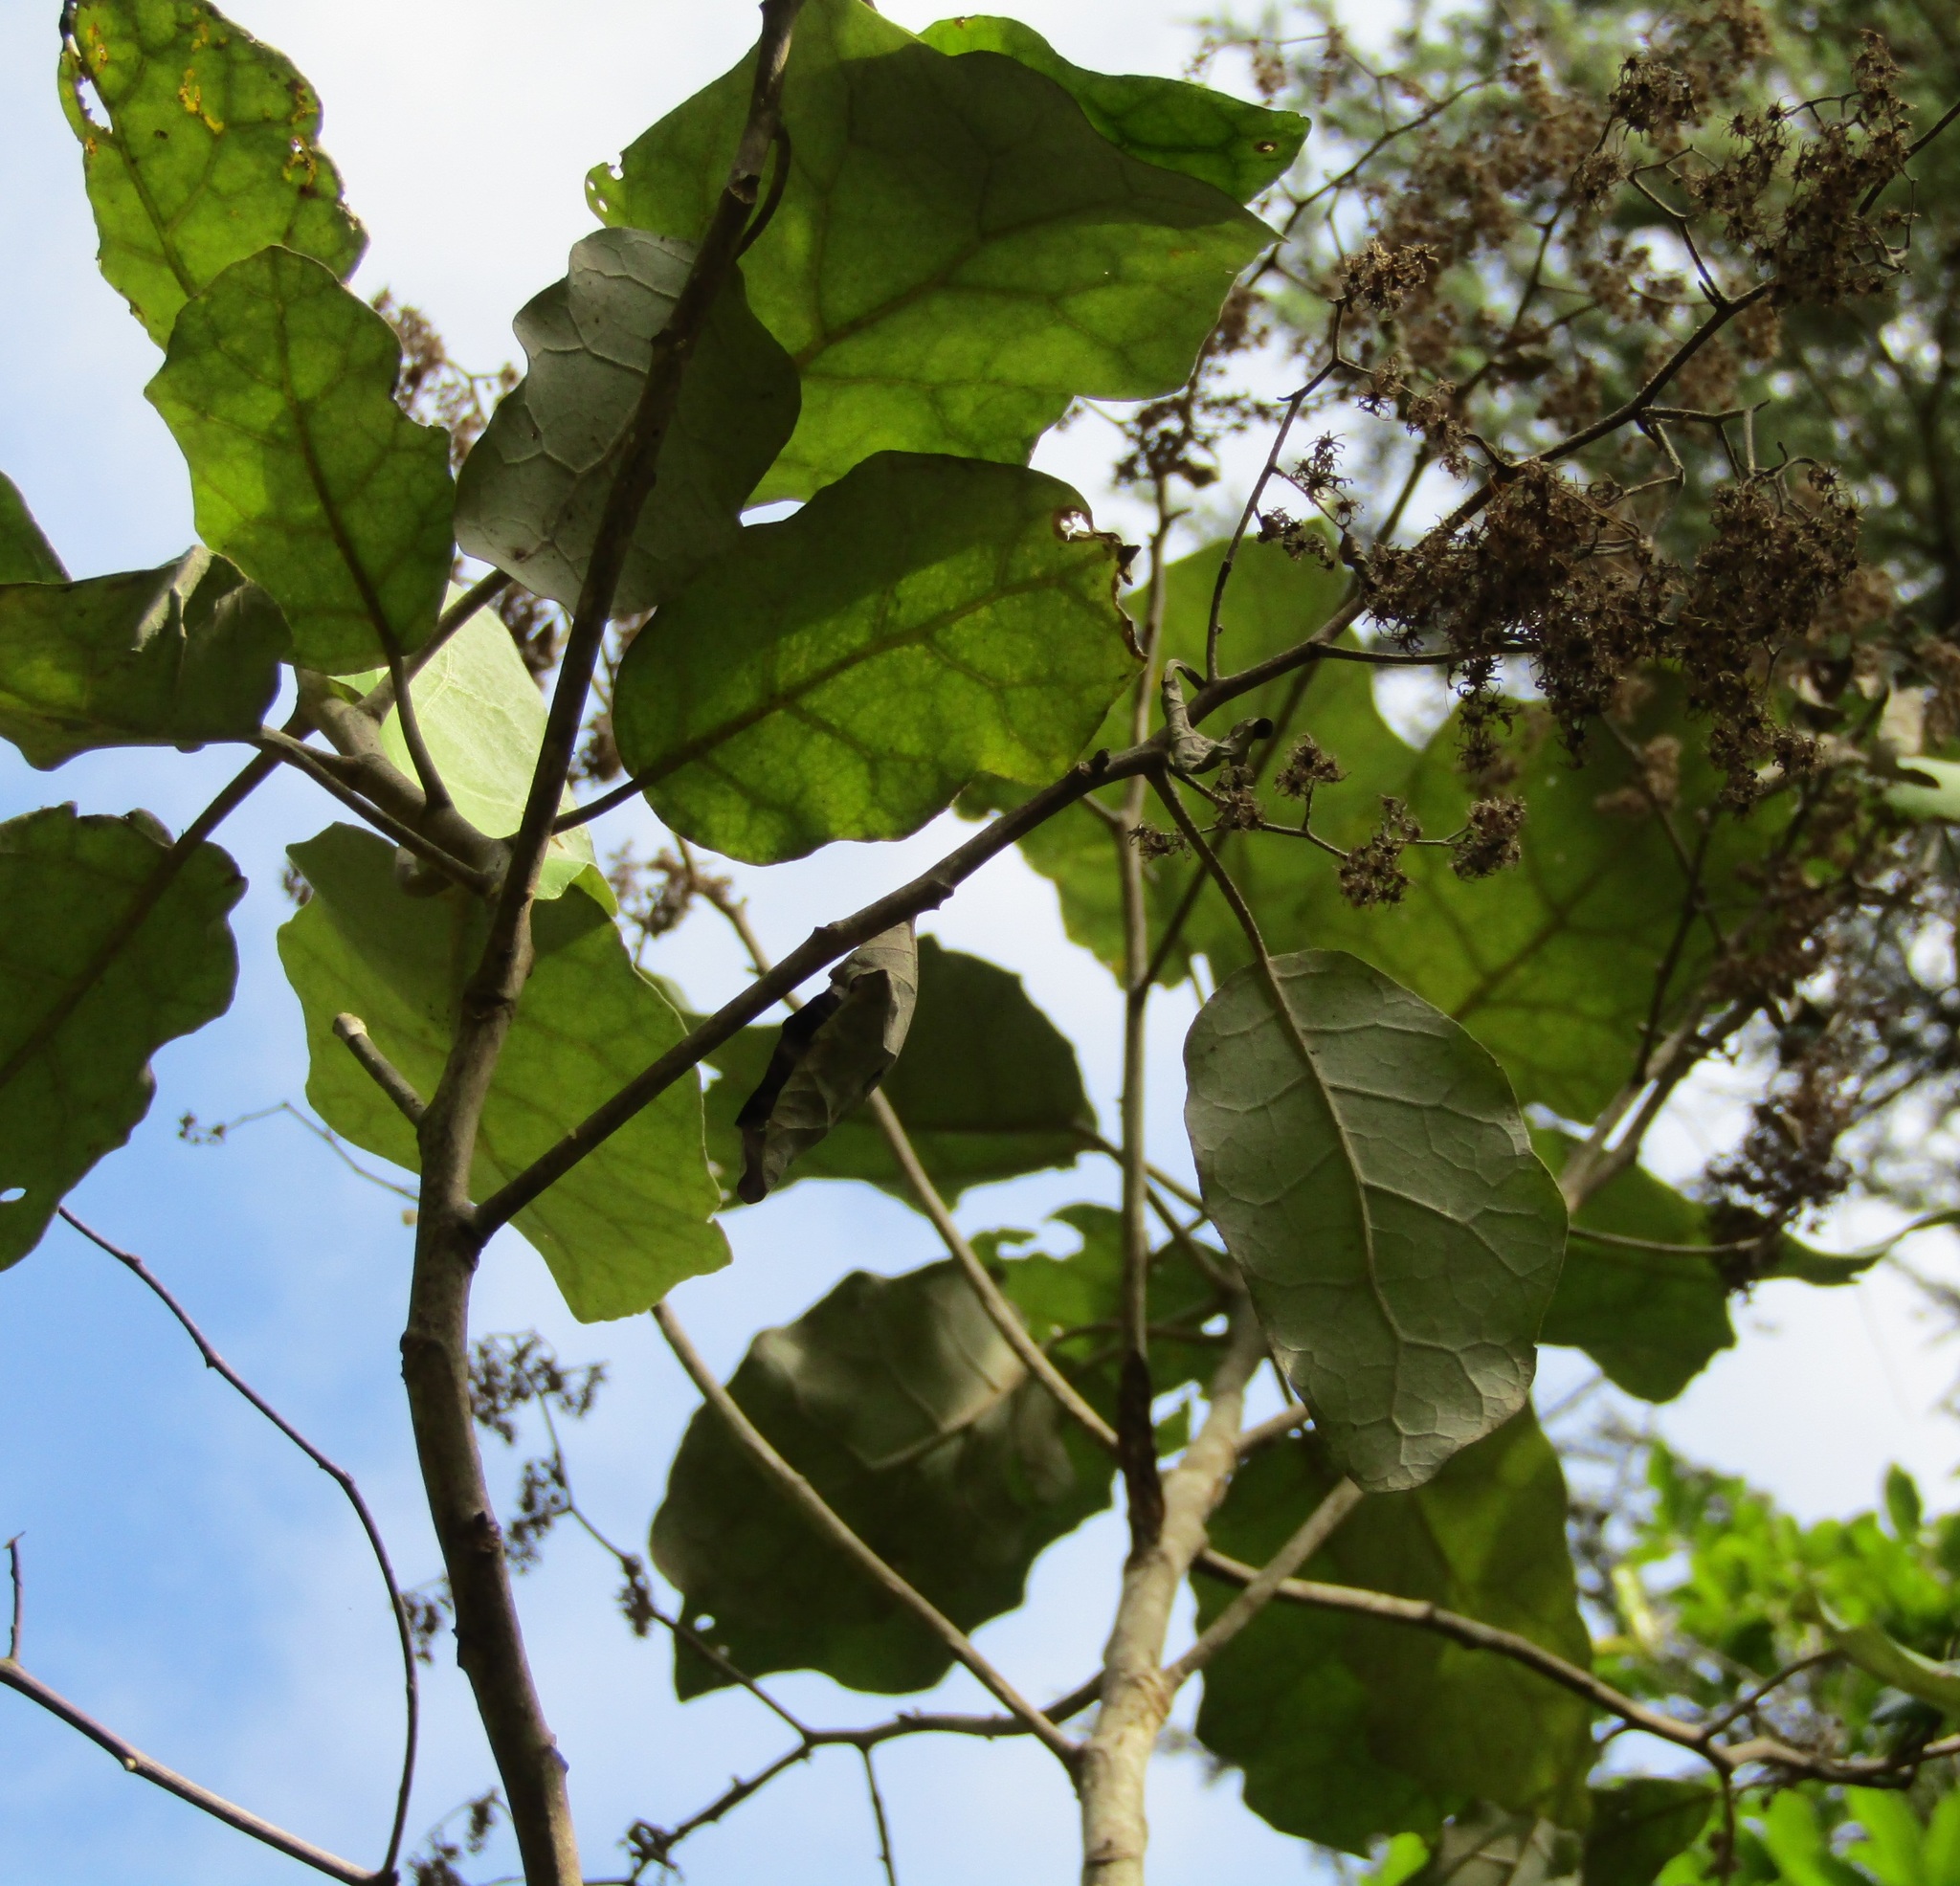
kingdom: Plantae
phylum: Tracheophyta
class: Magnoliopsida
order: Asterales
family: Asteraceae
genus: Brachyglottis
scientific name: Brachyglottis repanda
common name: Hedge ragwort
